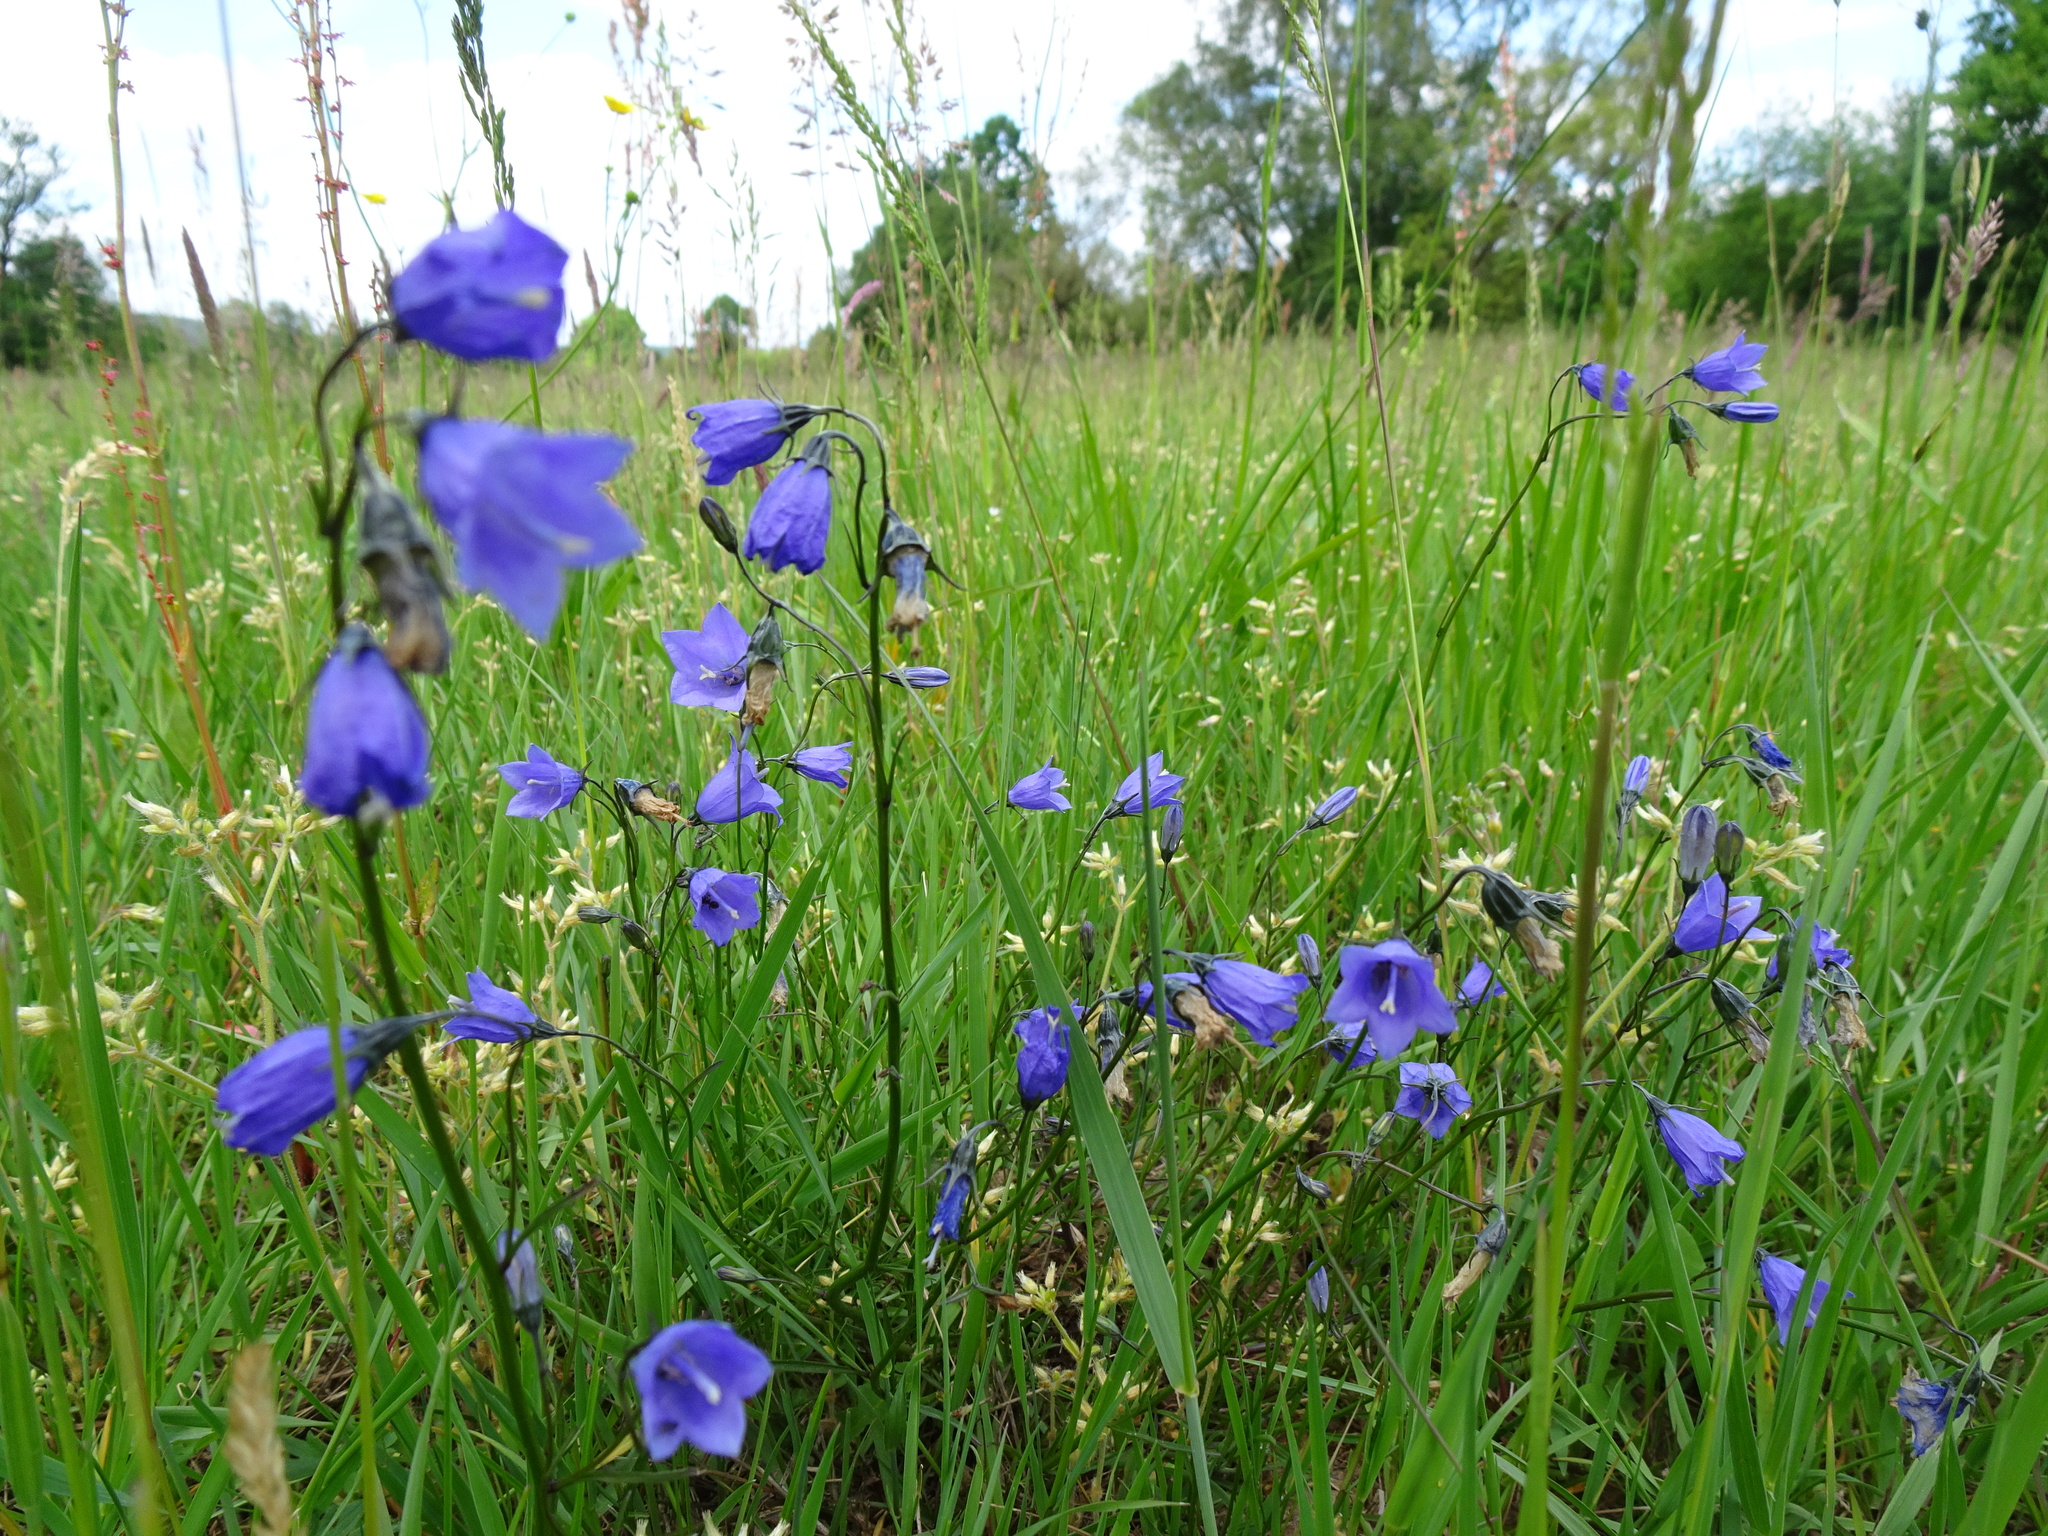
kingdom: Plantae
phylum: Tracheophyta
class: Magnoliopsida
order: Asterales
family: Campanulaceae
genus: Campanula
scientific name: Campanula rotundifolia
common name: Harebell
